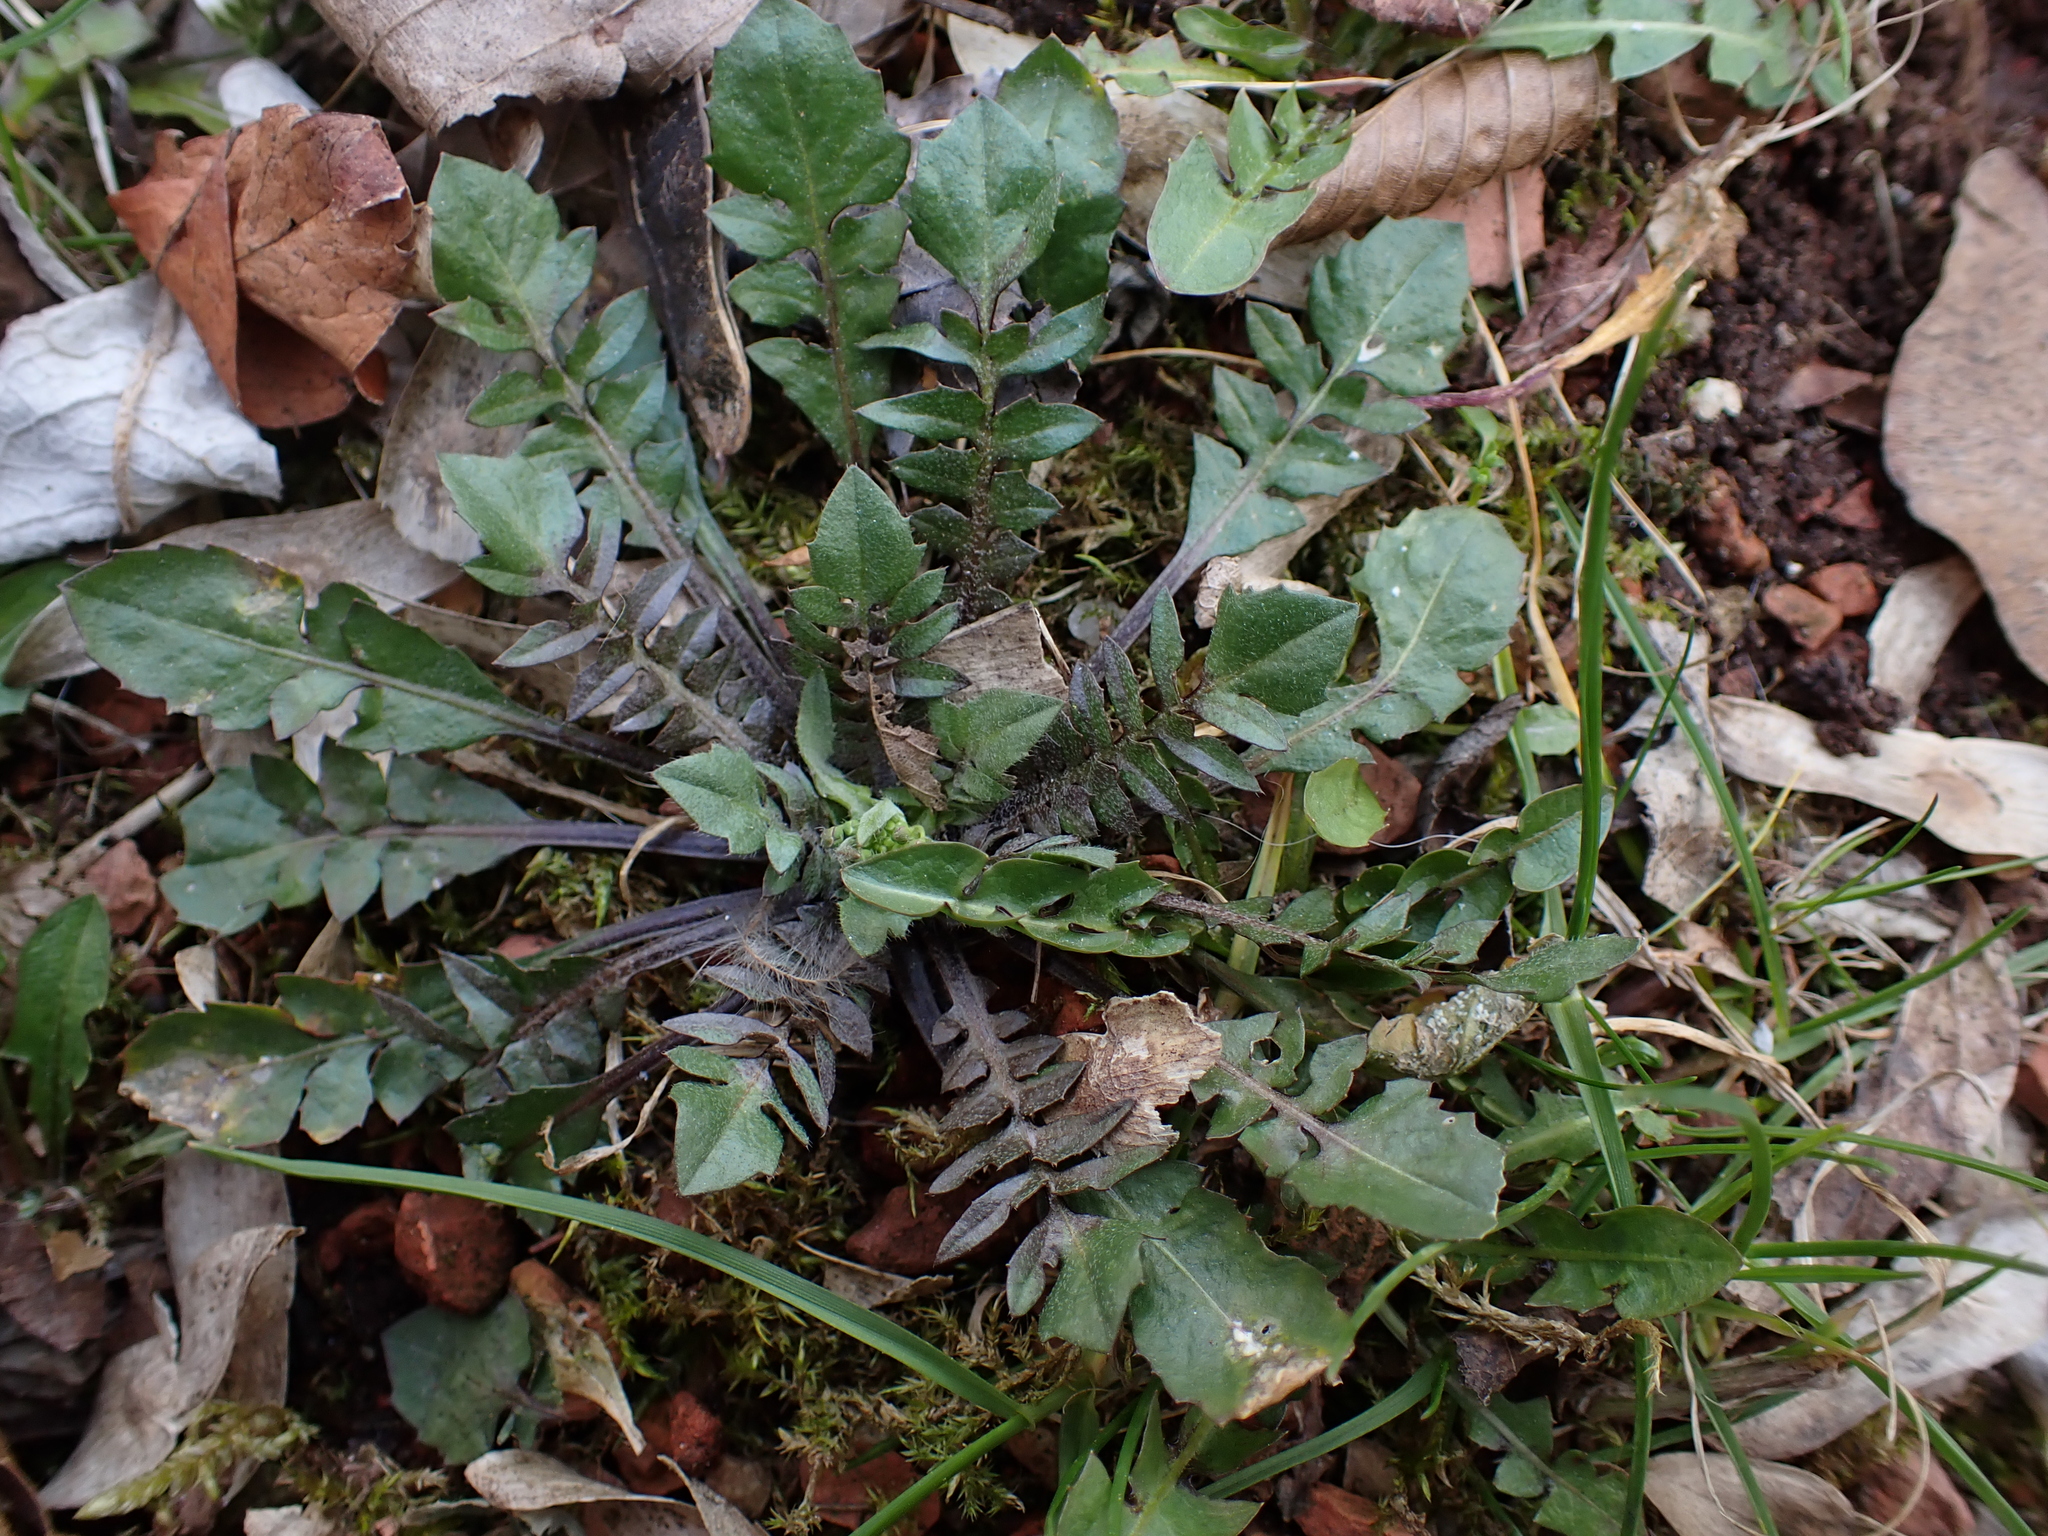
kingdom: Chromista
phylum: Oomycota
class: Peronosporea
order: Albuginales
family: Albuginaceae
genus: Albugo
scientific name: Albugo candida
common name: Crucifer white blister
